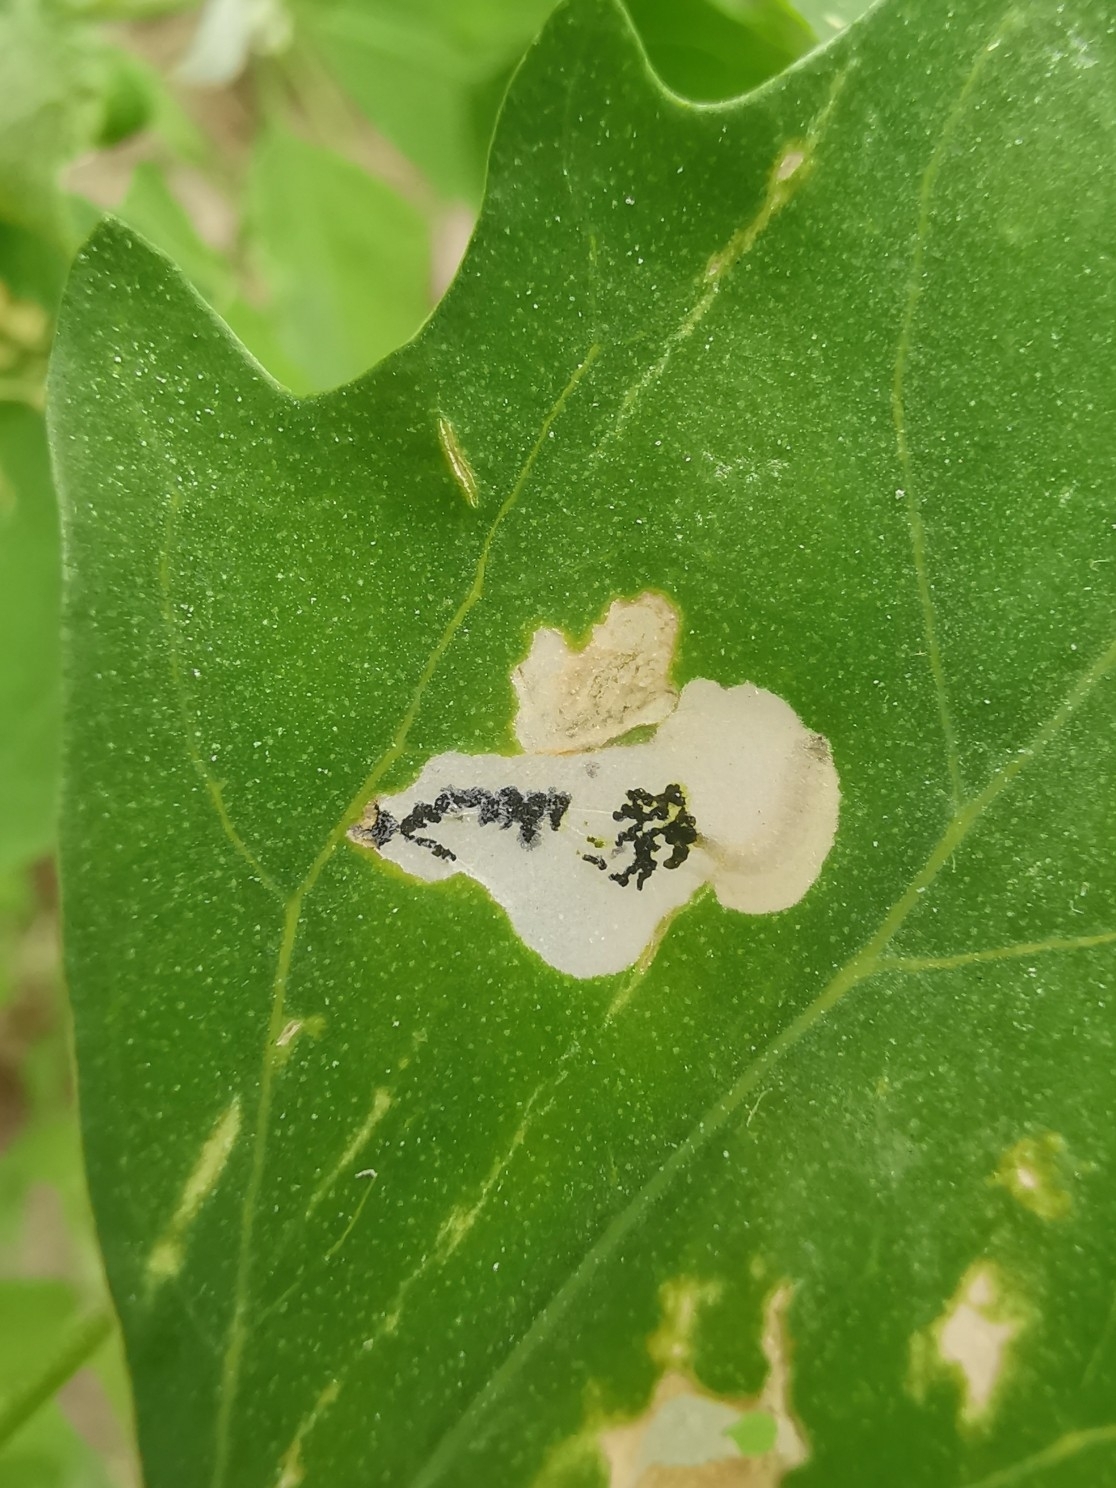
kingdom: Animalia
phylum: Arthropoda
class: Insecta
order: Lepidoptera
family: Gelechiidae
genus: Chrysoesthia
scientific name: Chrysoesthia sexguttella
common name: Moth
